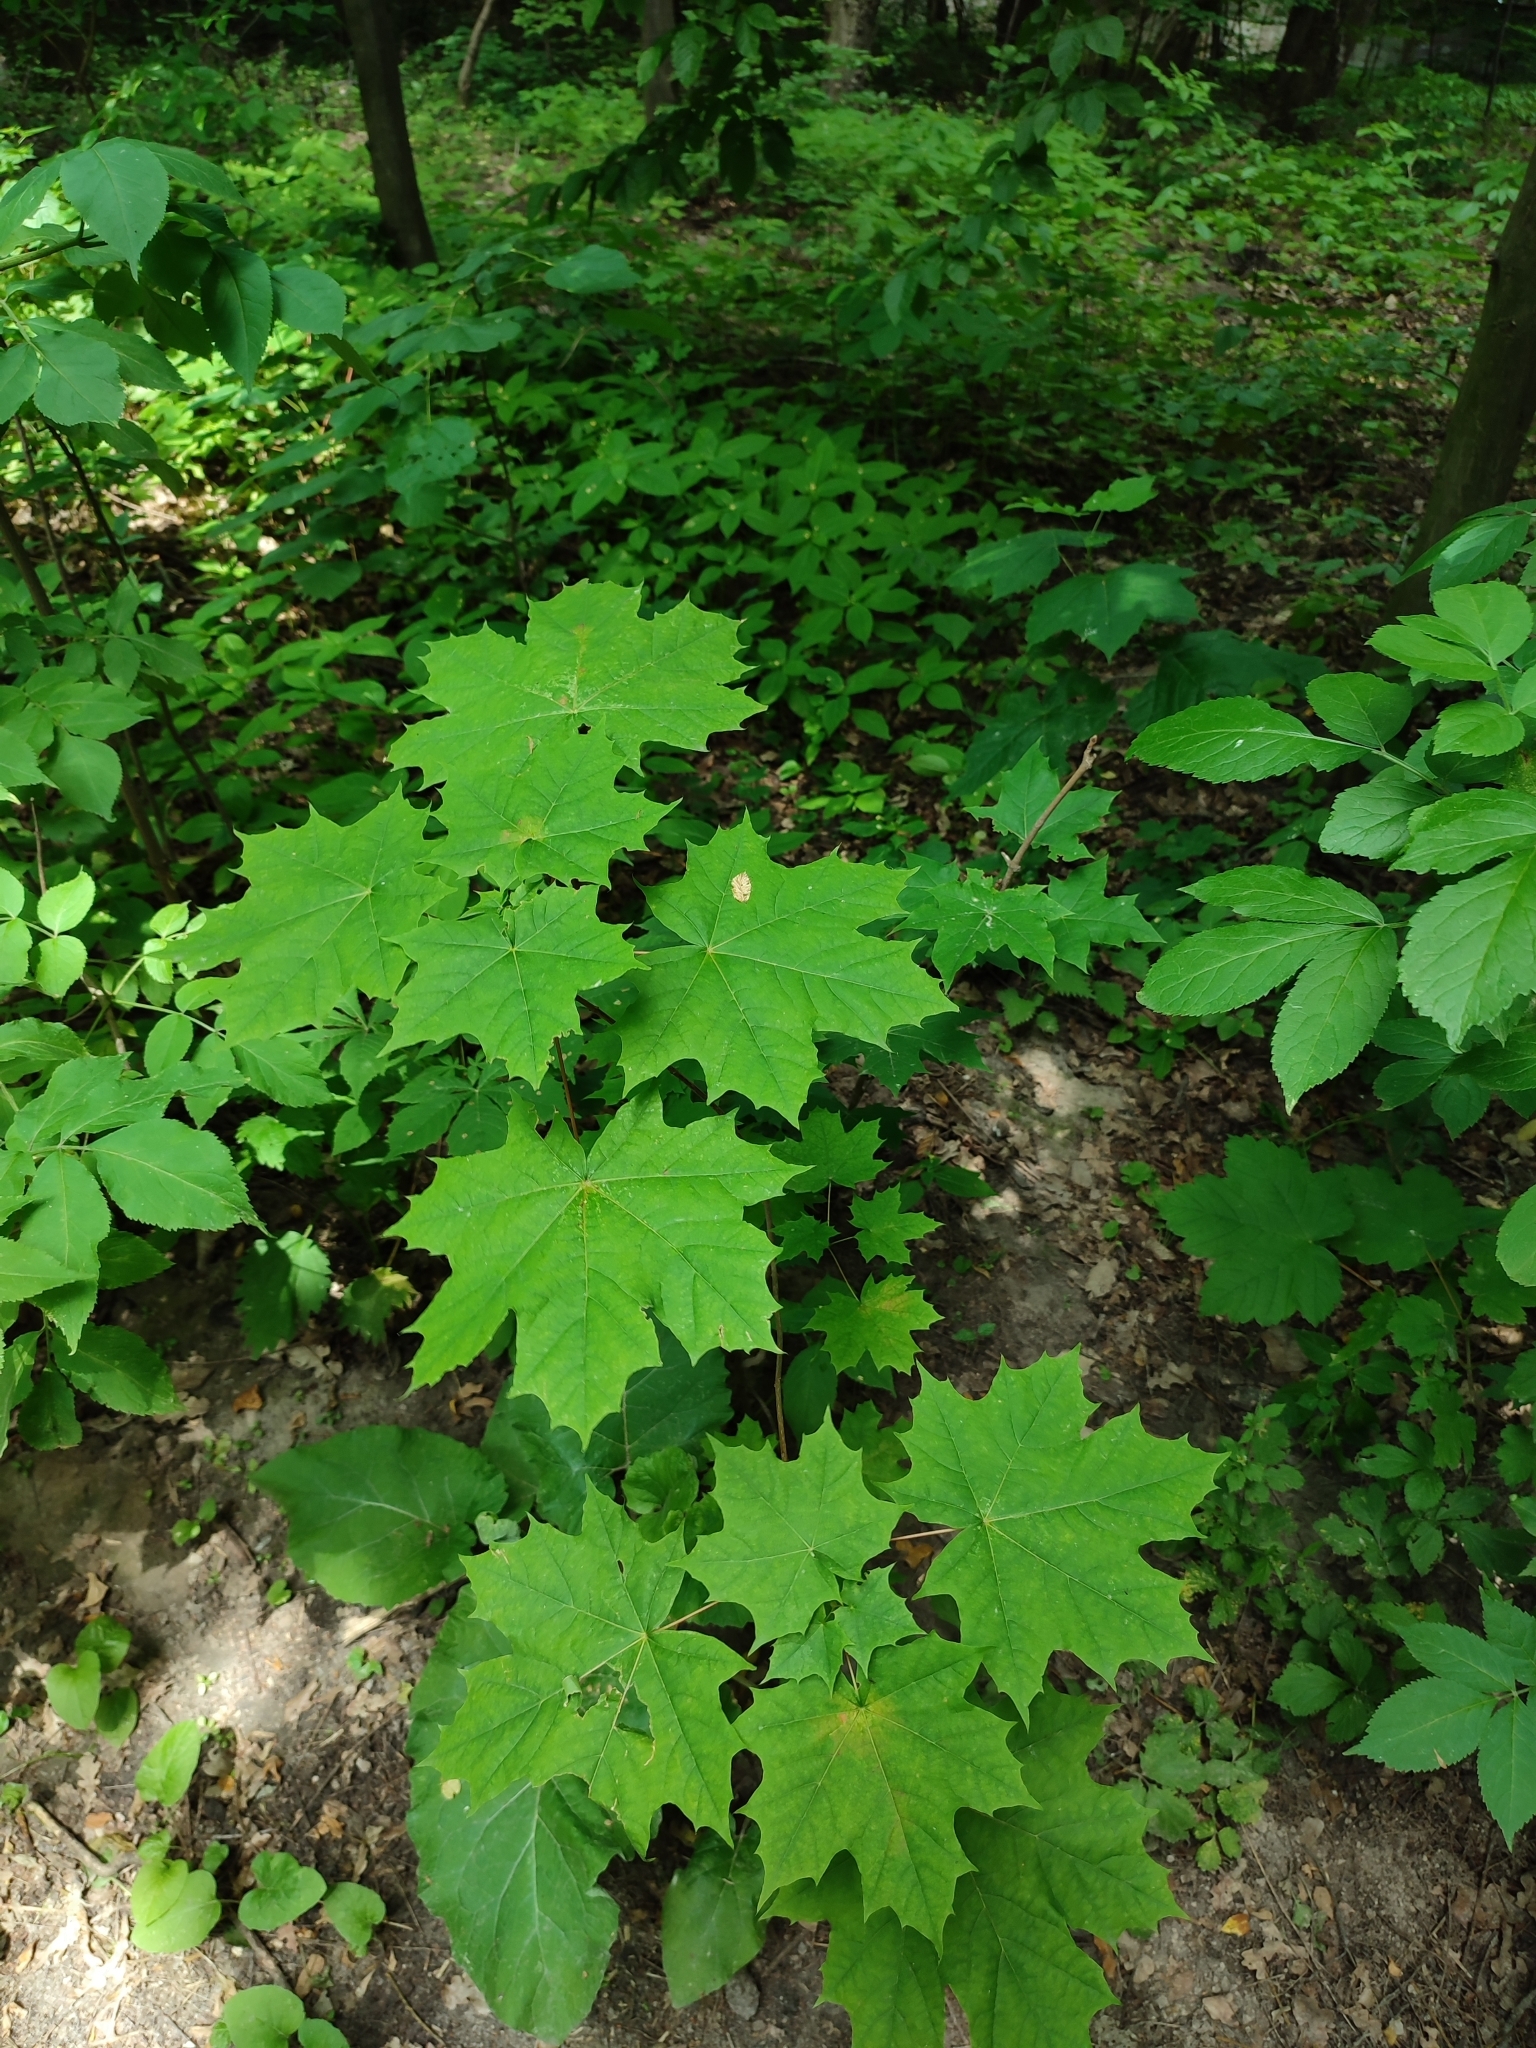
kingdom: Plantae
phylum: Tracheophyta
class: Magnoliopsida
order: Sapindales
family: Sapindaceae
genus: Acer
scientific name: Acer platanoides
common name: Norway maple
